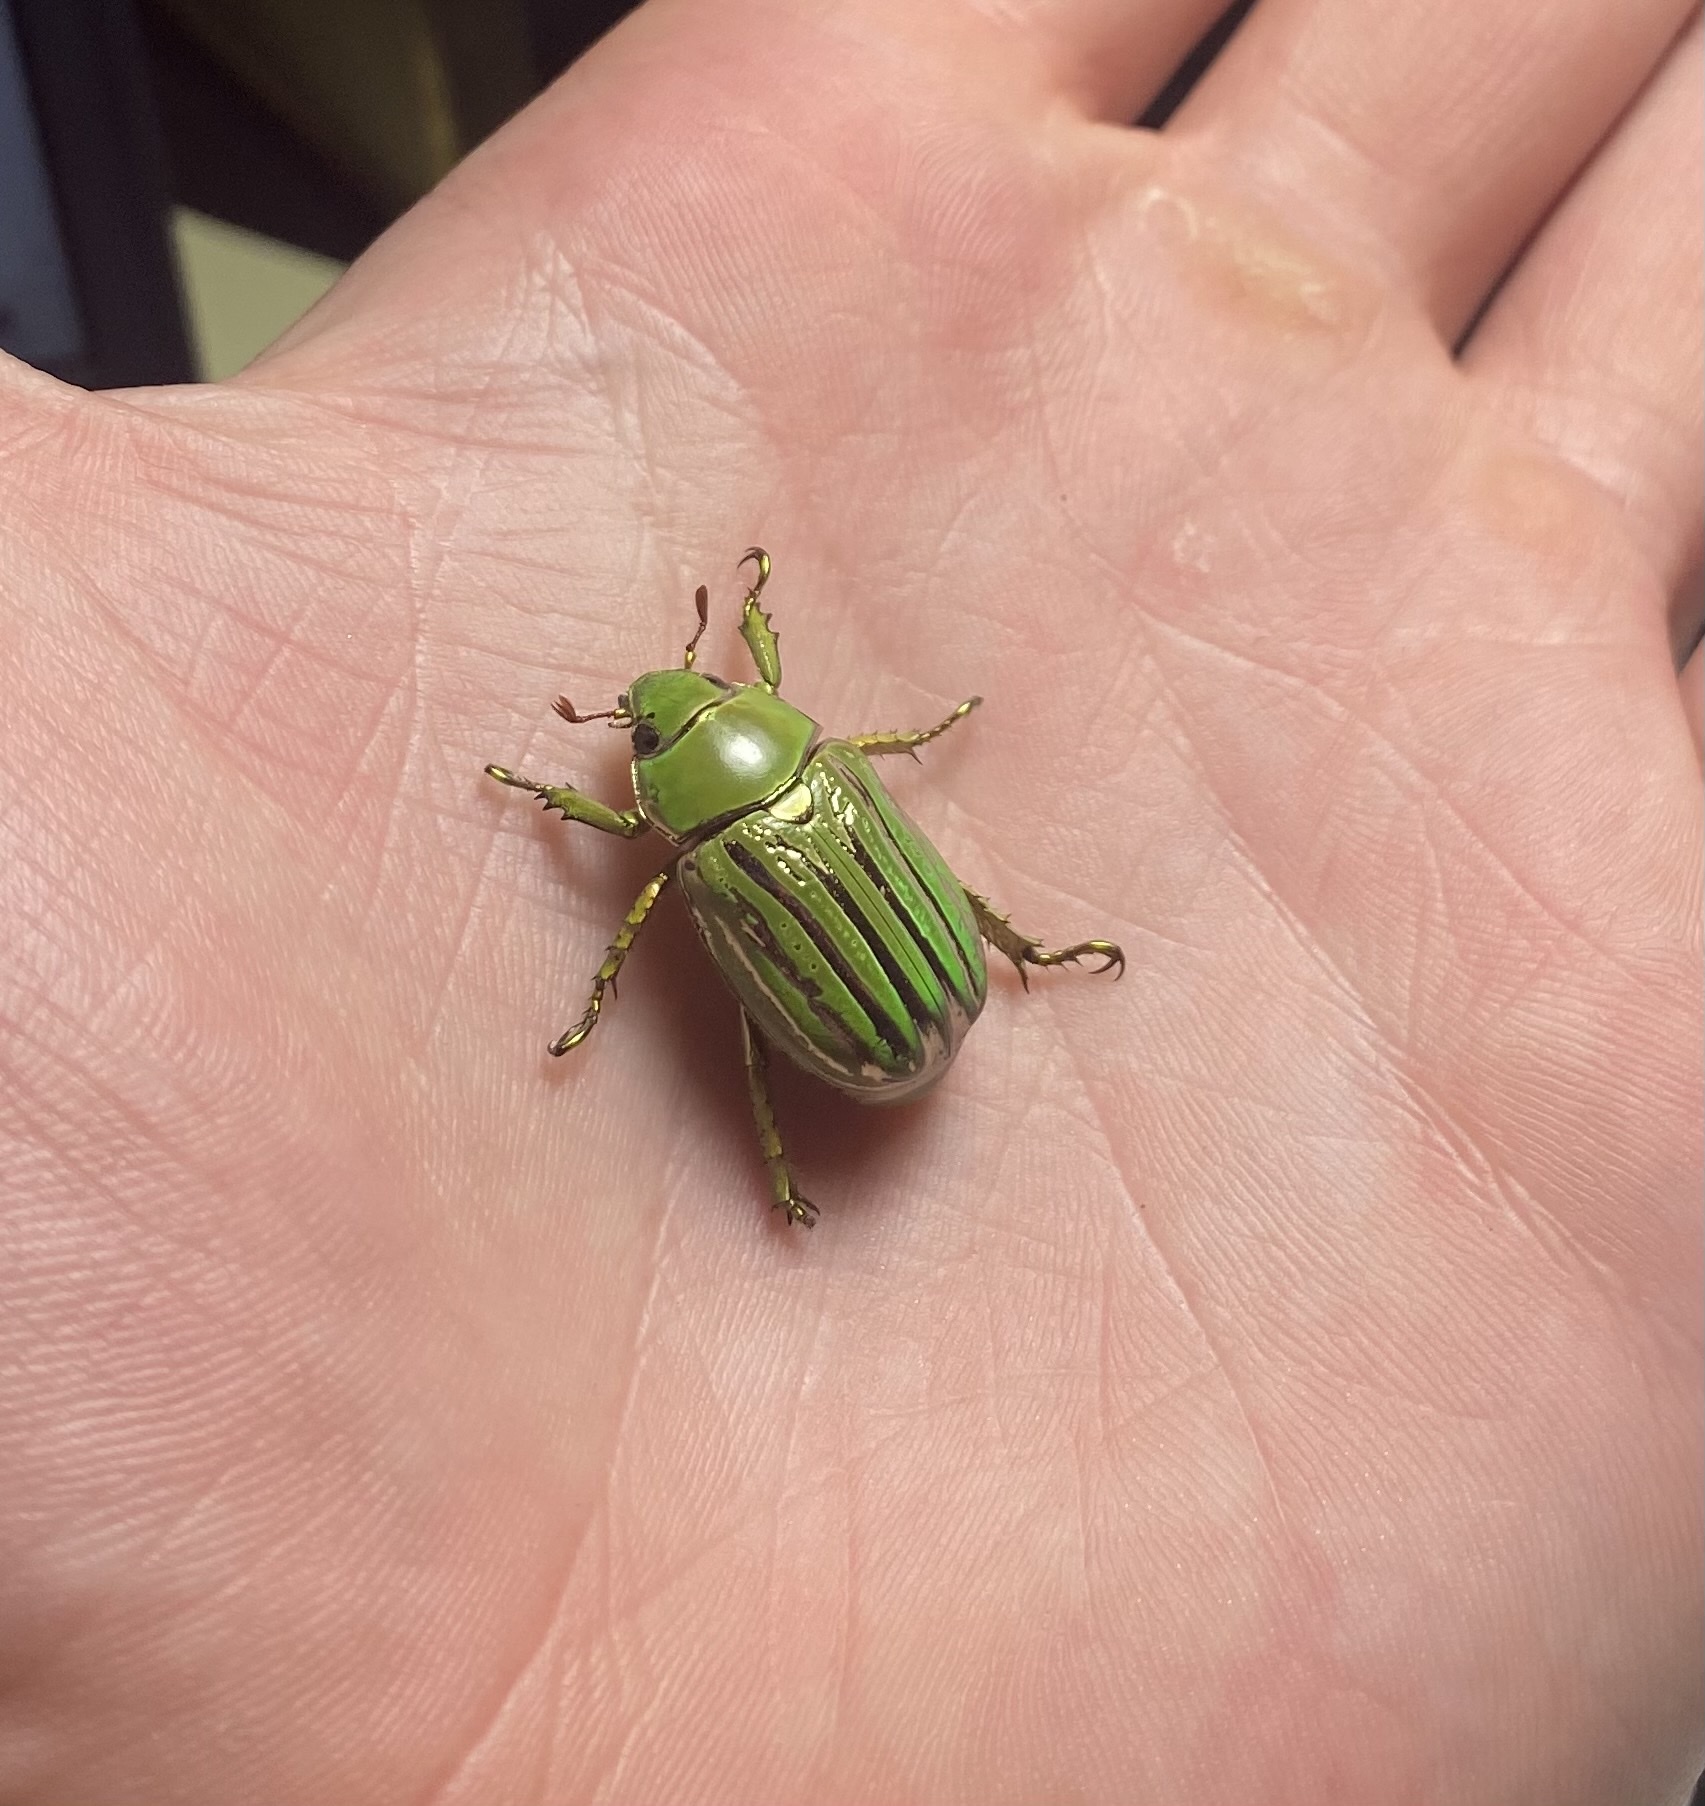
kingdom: Animalia
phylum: Arthropoda
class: Insecta
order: Coleoptera
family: Scarabaeidae
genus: Chrysina
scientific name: Chrysina gloriosa
